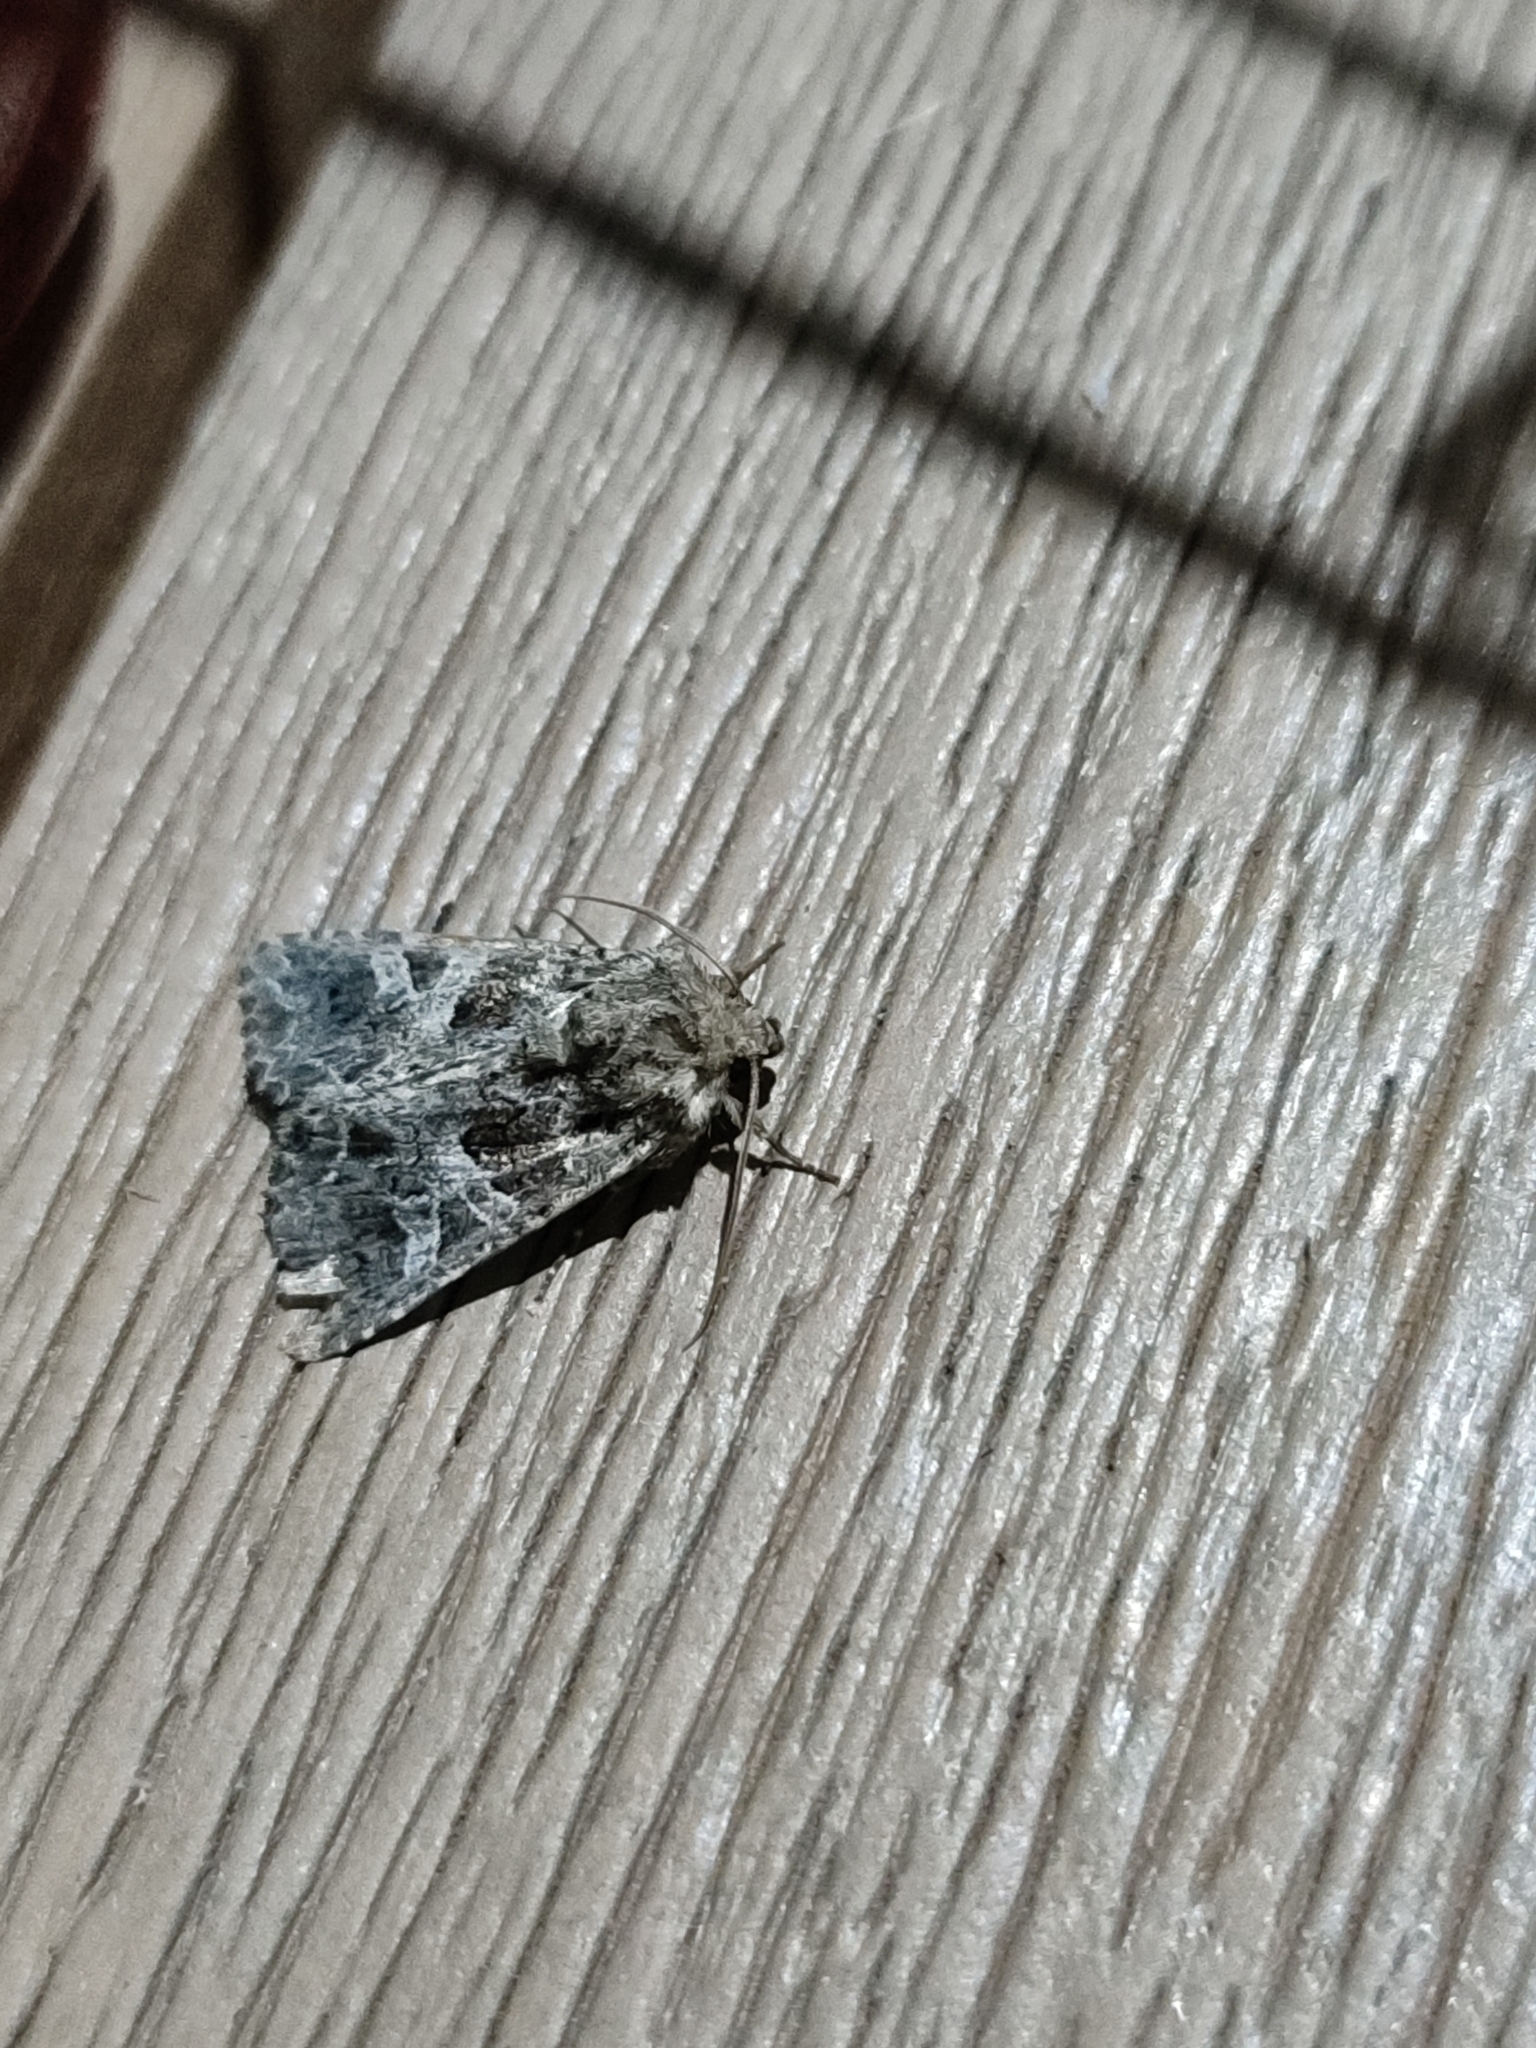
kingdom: Animalia
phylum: Arthropoda
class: Insecta
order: Lepidoptera
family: Noctuidae
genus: Sideridis
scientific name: Sideridis rivularis
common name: Campion
